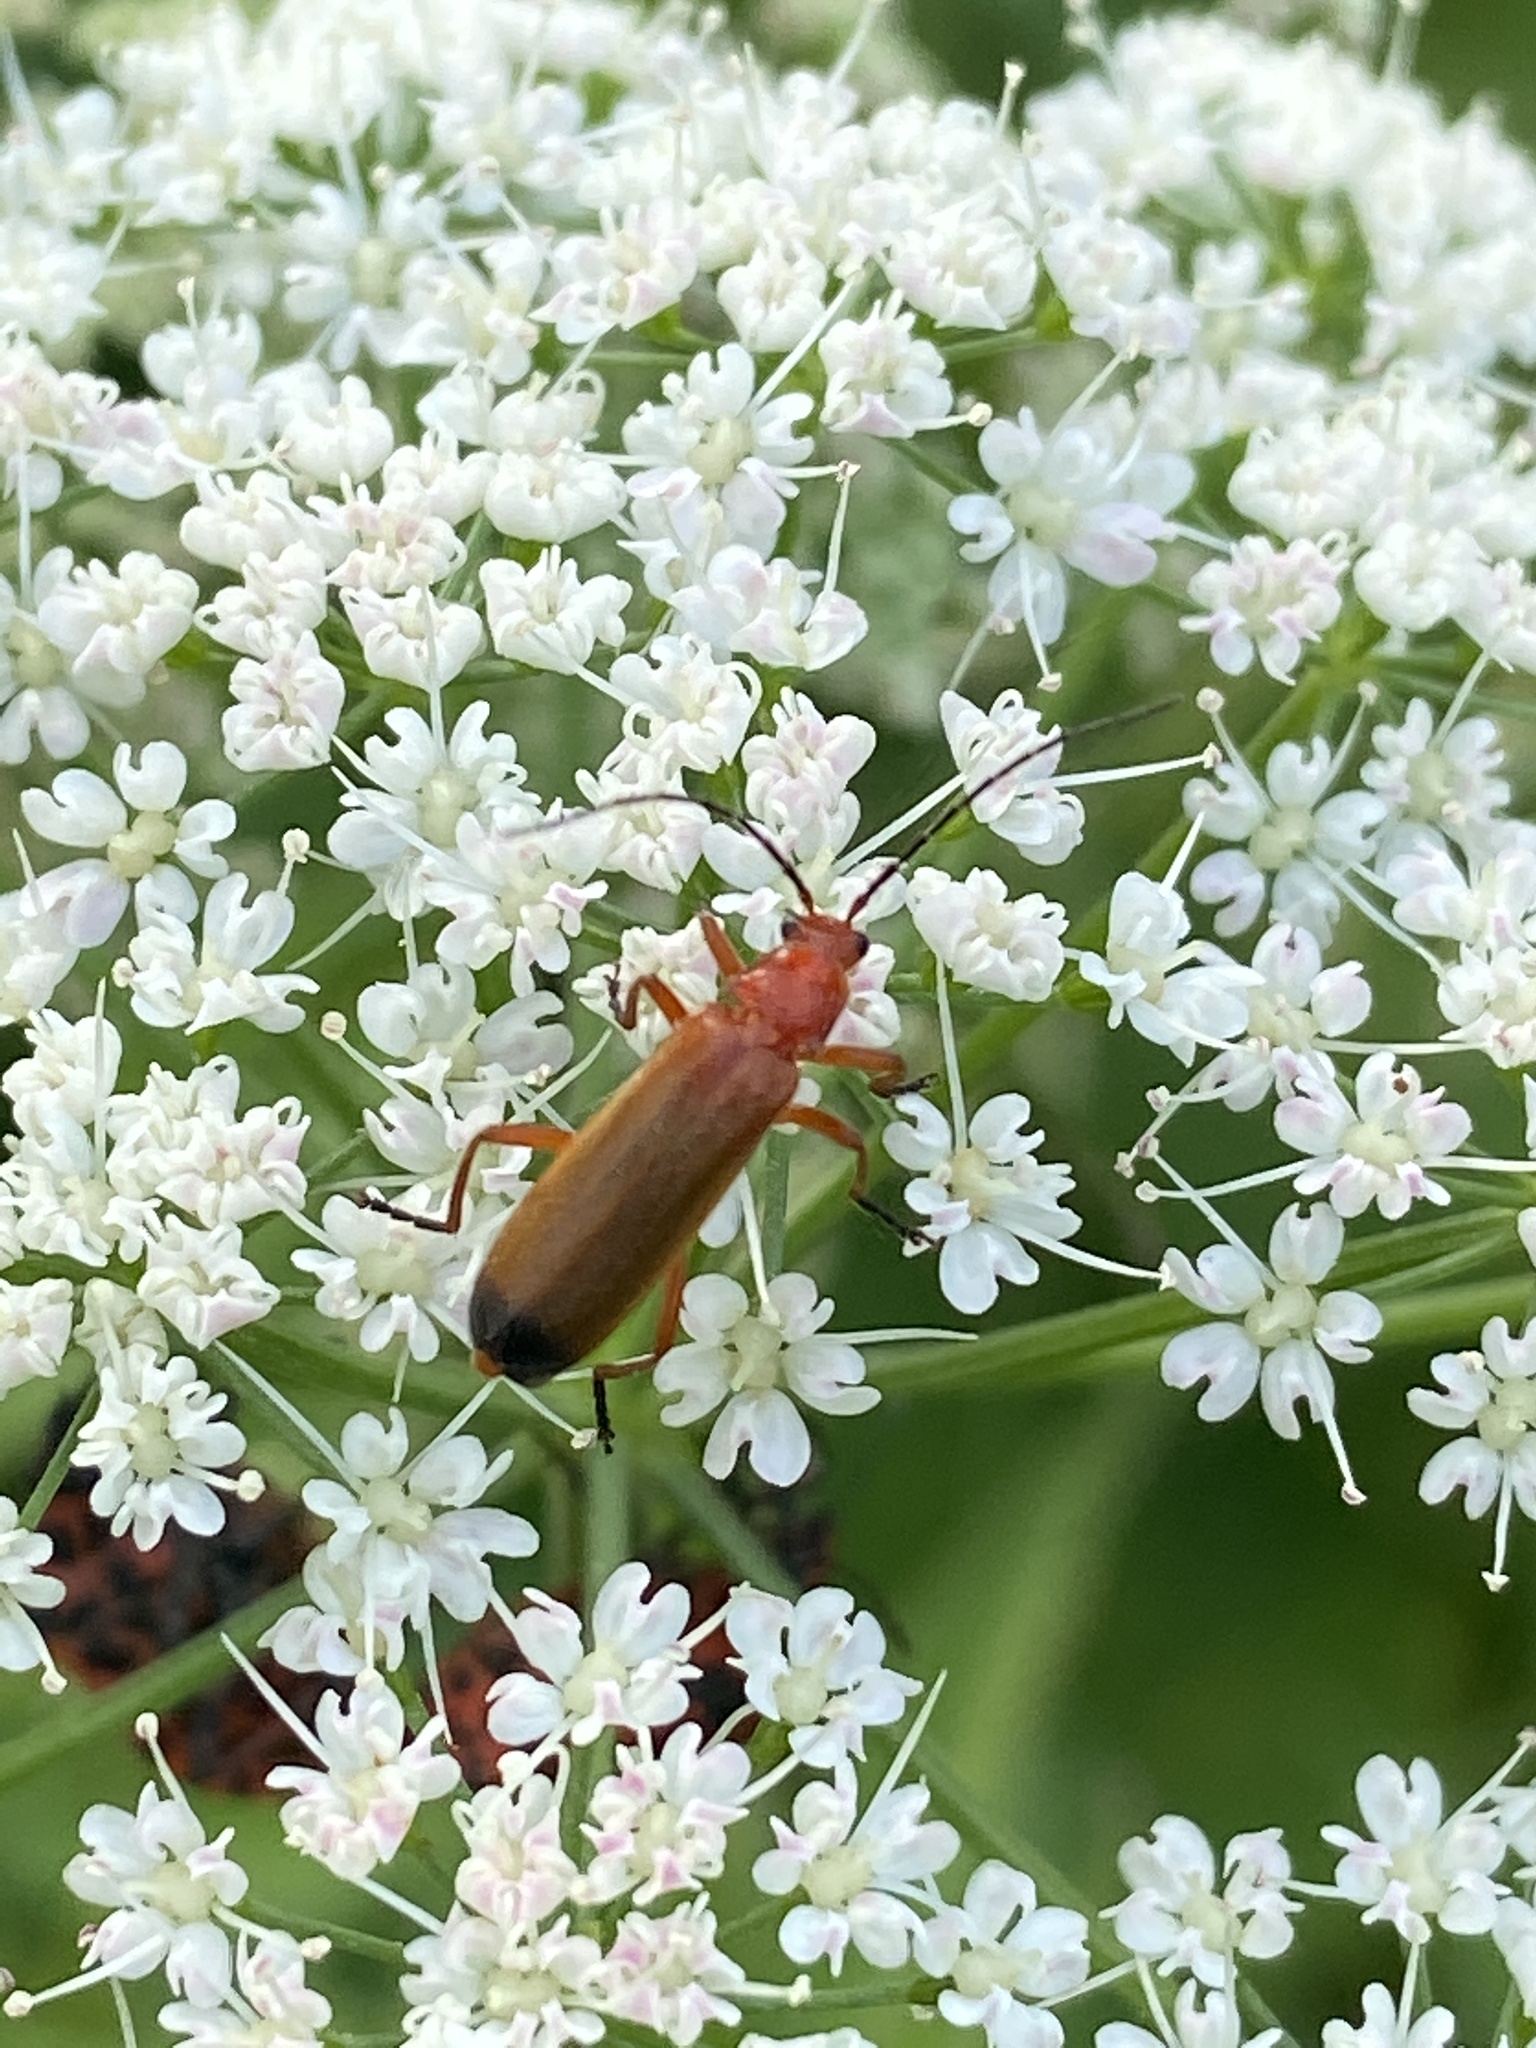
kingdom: Animalia
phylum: Arthropoda
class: Insecta
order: Coleoptera
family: Cantharidae
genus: Rhagonycha
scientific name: Rhagonycha fulva
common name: Common red soldier beetle
